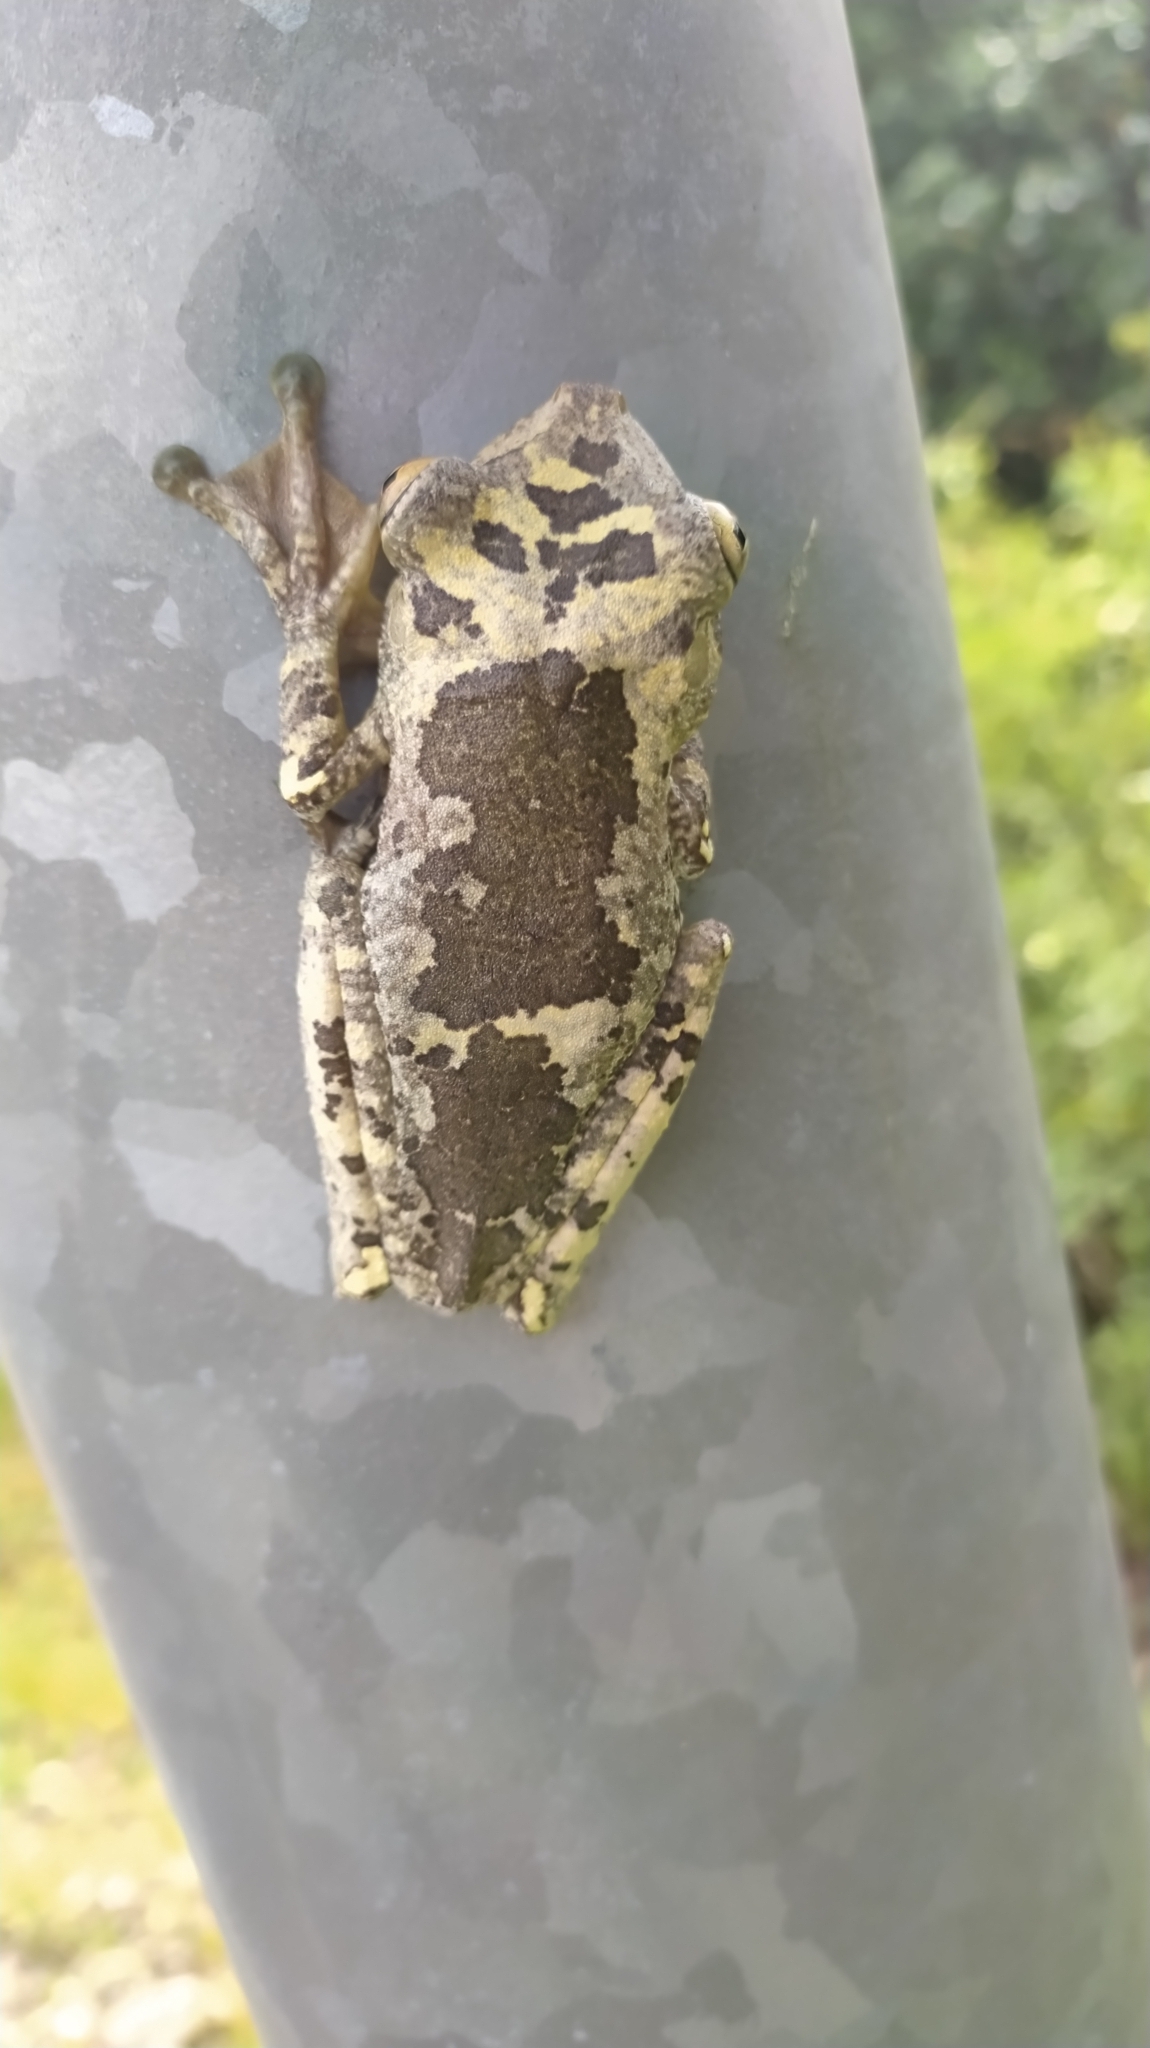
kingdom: Animalia
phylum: Chordata
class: Amphibia
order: Anura
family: Hylidae
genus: Boana
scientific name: Boana boans
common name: Giant gladiator treefrog
